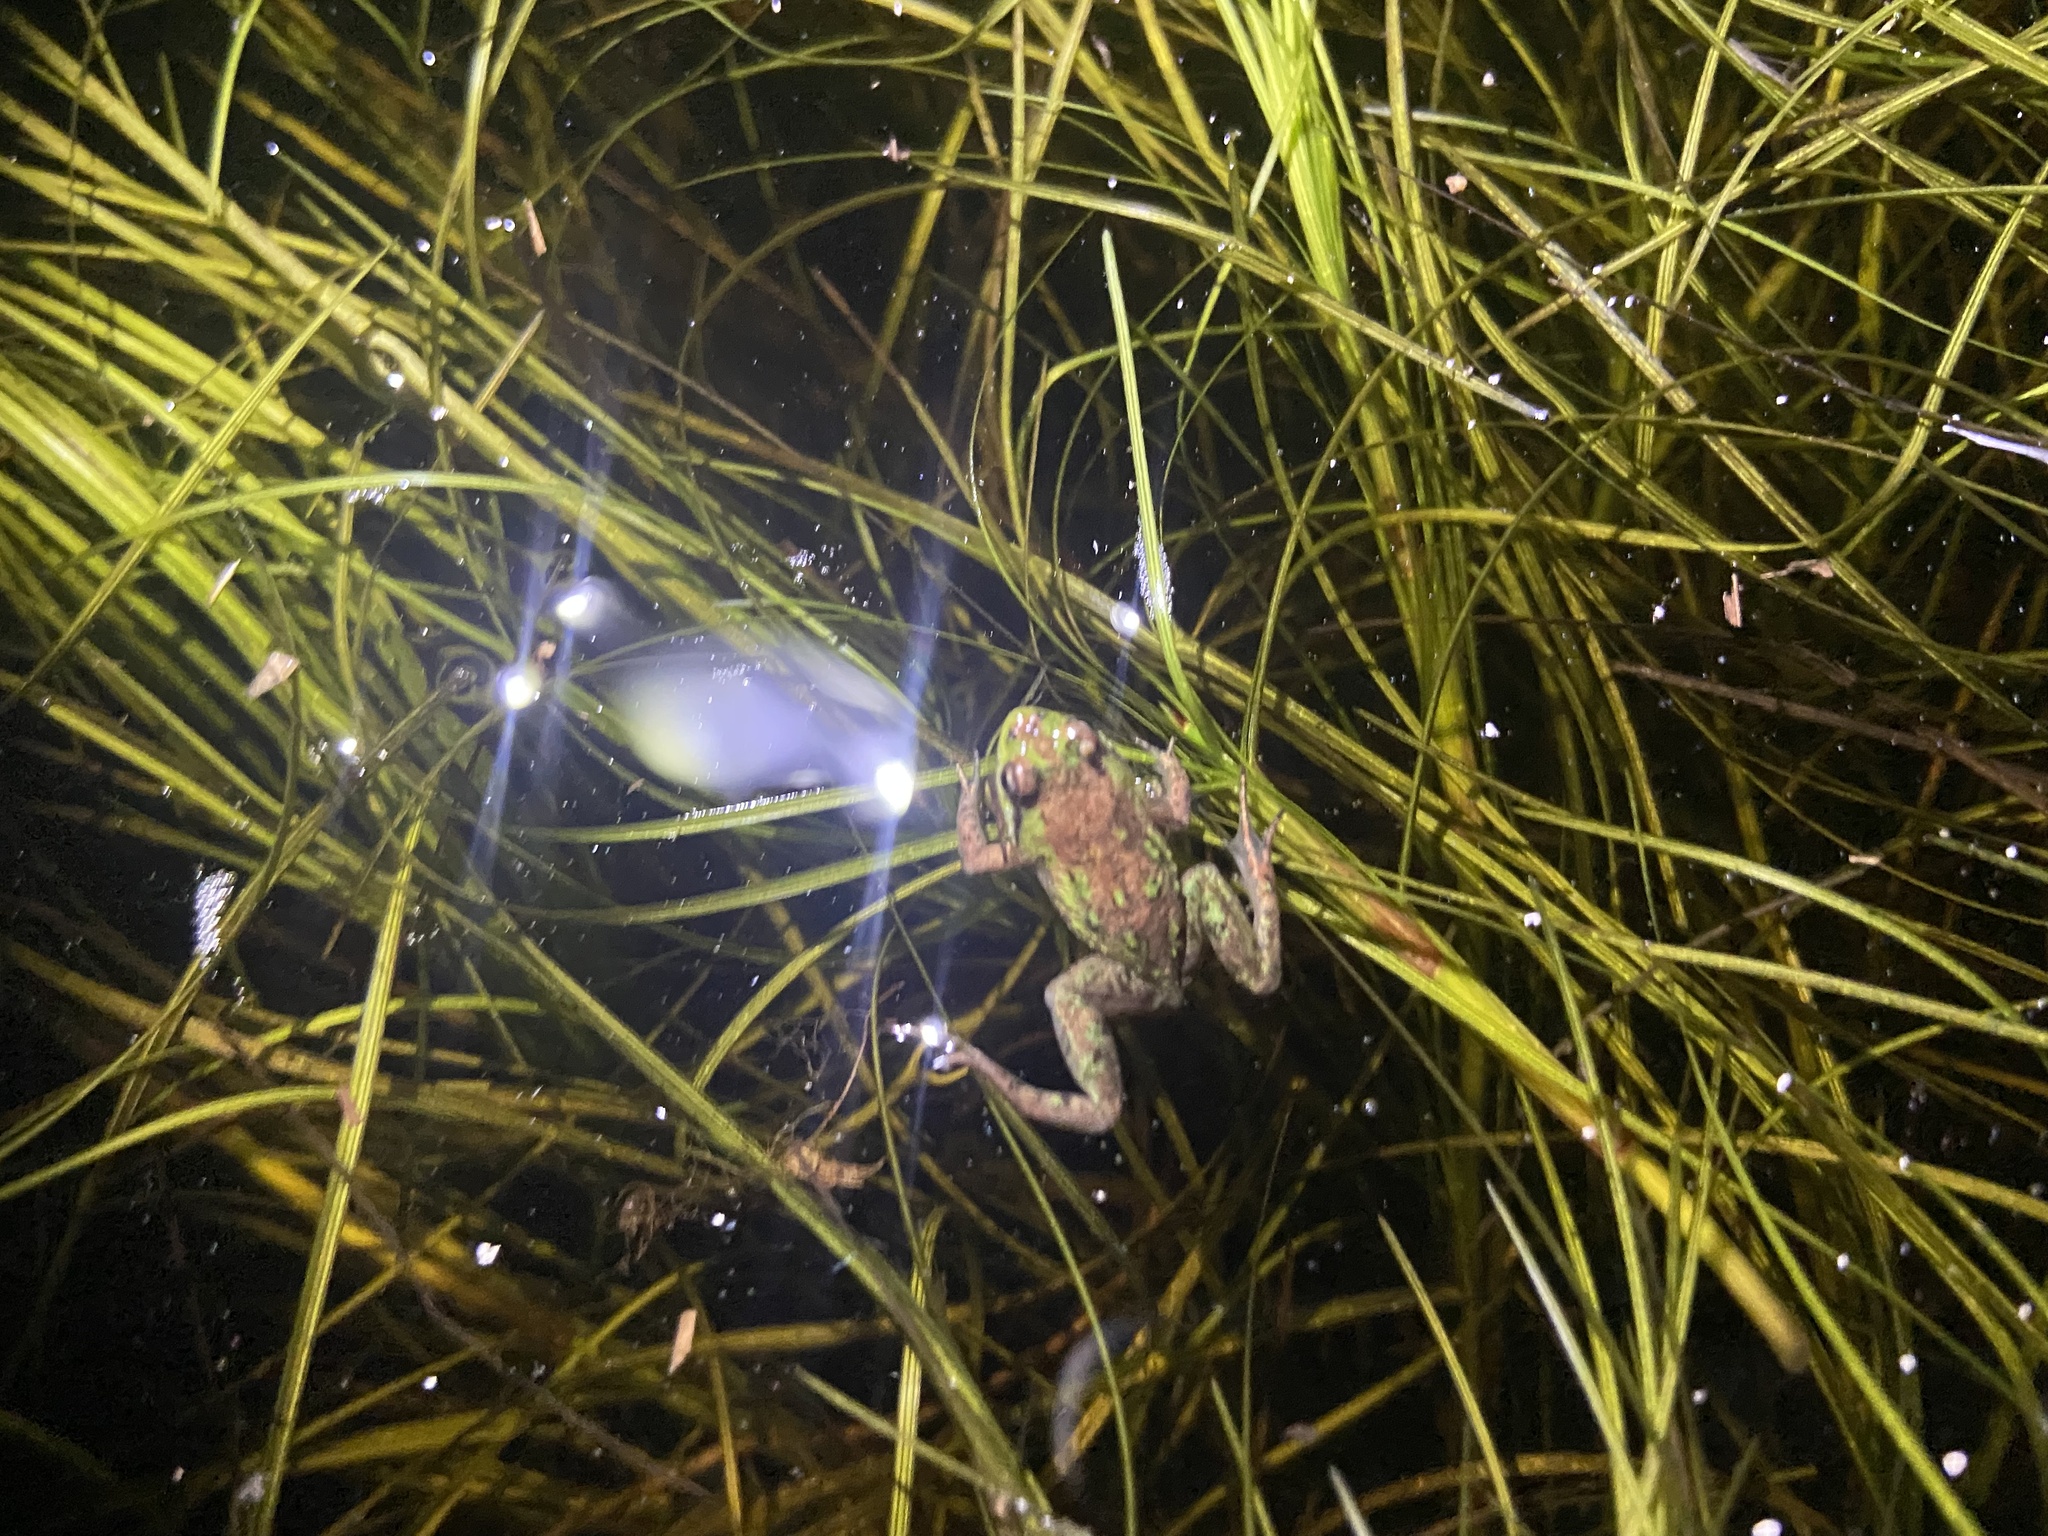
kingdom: Animalia
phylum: Chordata
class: Amphibia
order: Anura
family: Pyxicephalidae
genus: Microbatrachella
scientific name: Microbatrachella capensis
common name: Cape flats frog
